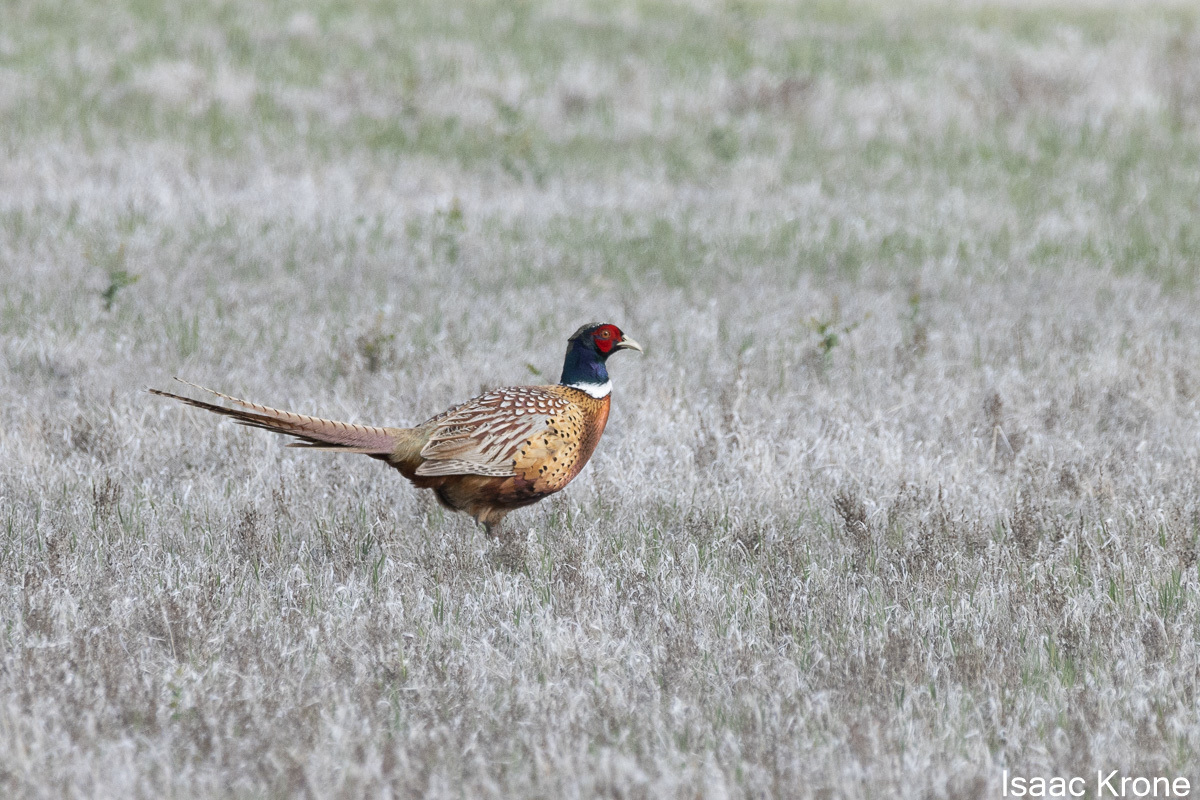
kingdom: Animalia
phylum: Chordata
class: Aves
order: Galliformes
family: Phasianidae
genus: Phasianus
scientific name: Phasianus colchicus
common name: Common pheasant
